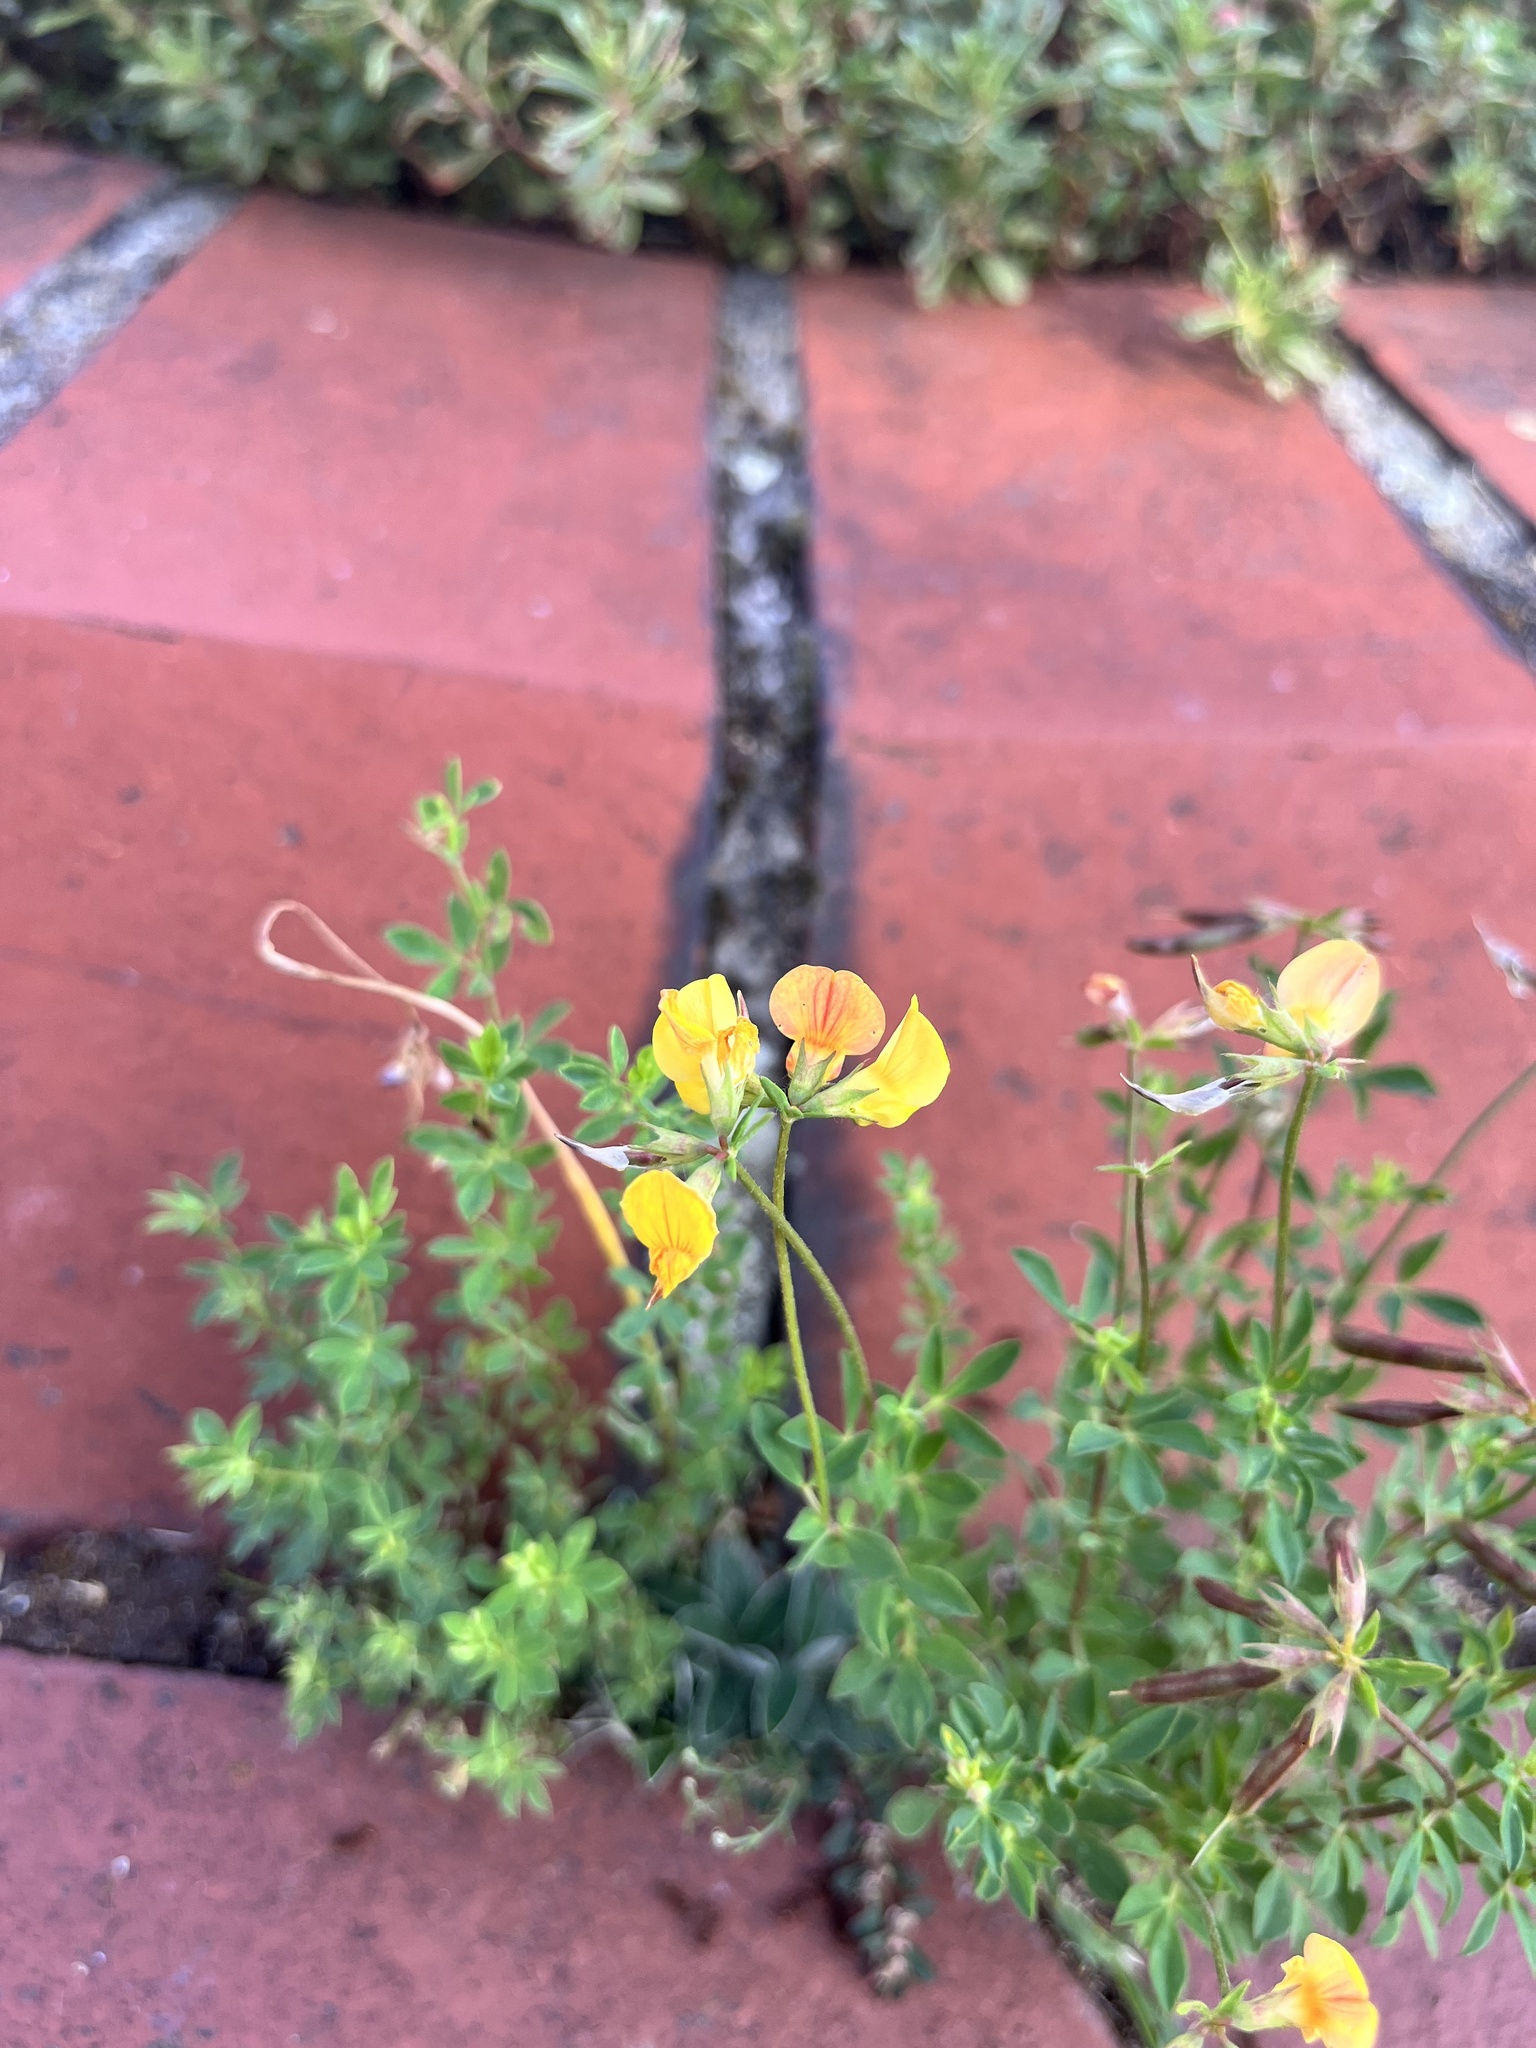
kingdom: Plantae
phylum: Tracheophyta
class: Magnoliopsida
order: Fabales
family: Fabaceae
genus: Lotus
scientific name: Lotus corniculatus
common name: Common bird's-foot-trefoil
